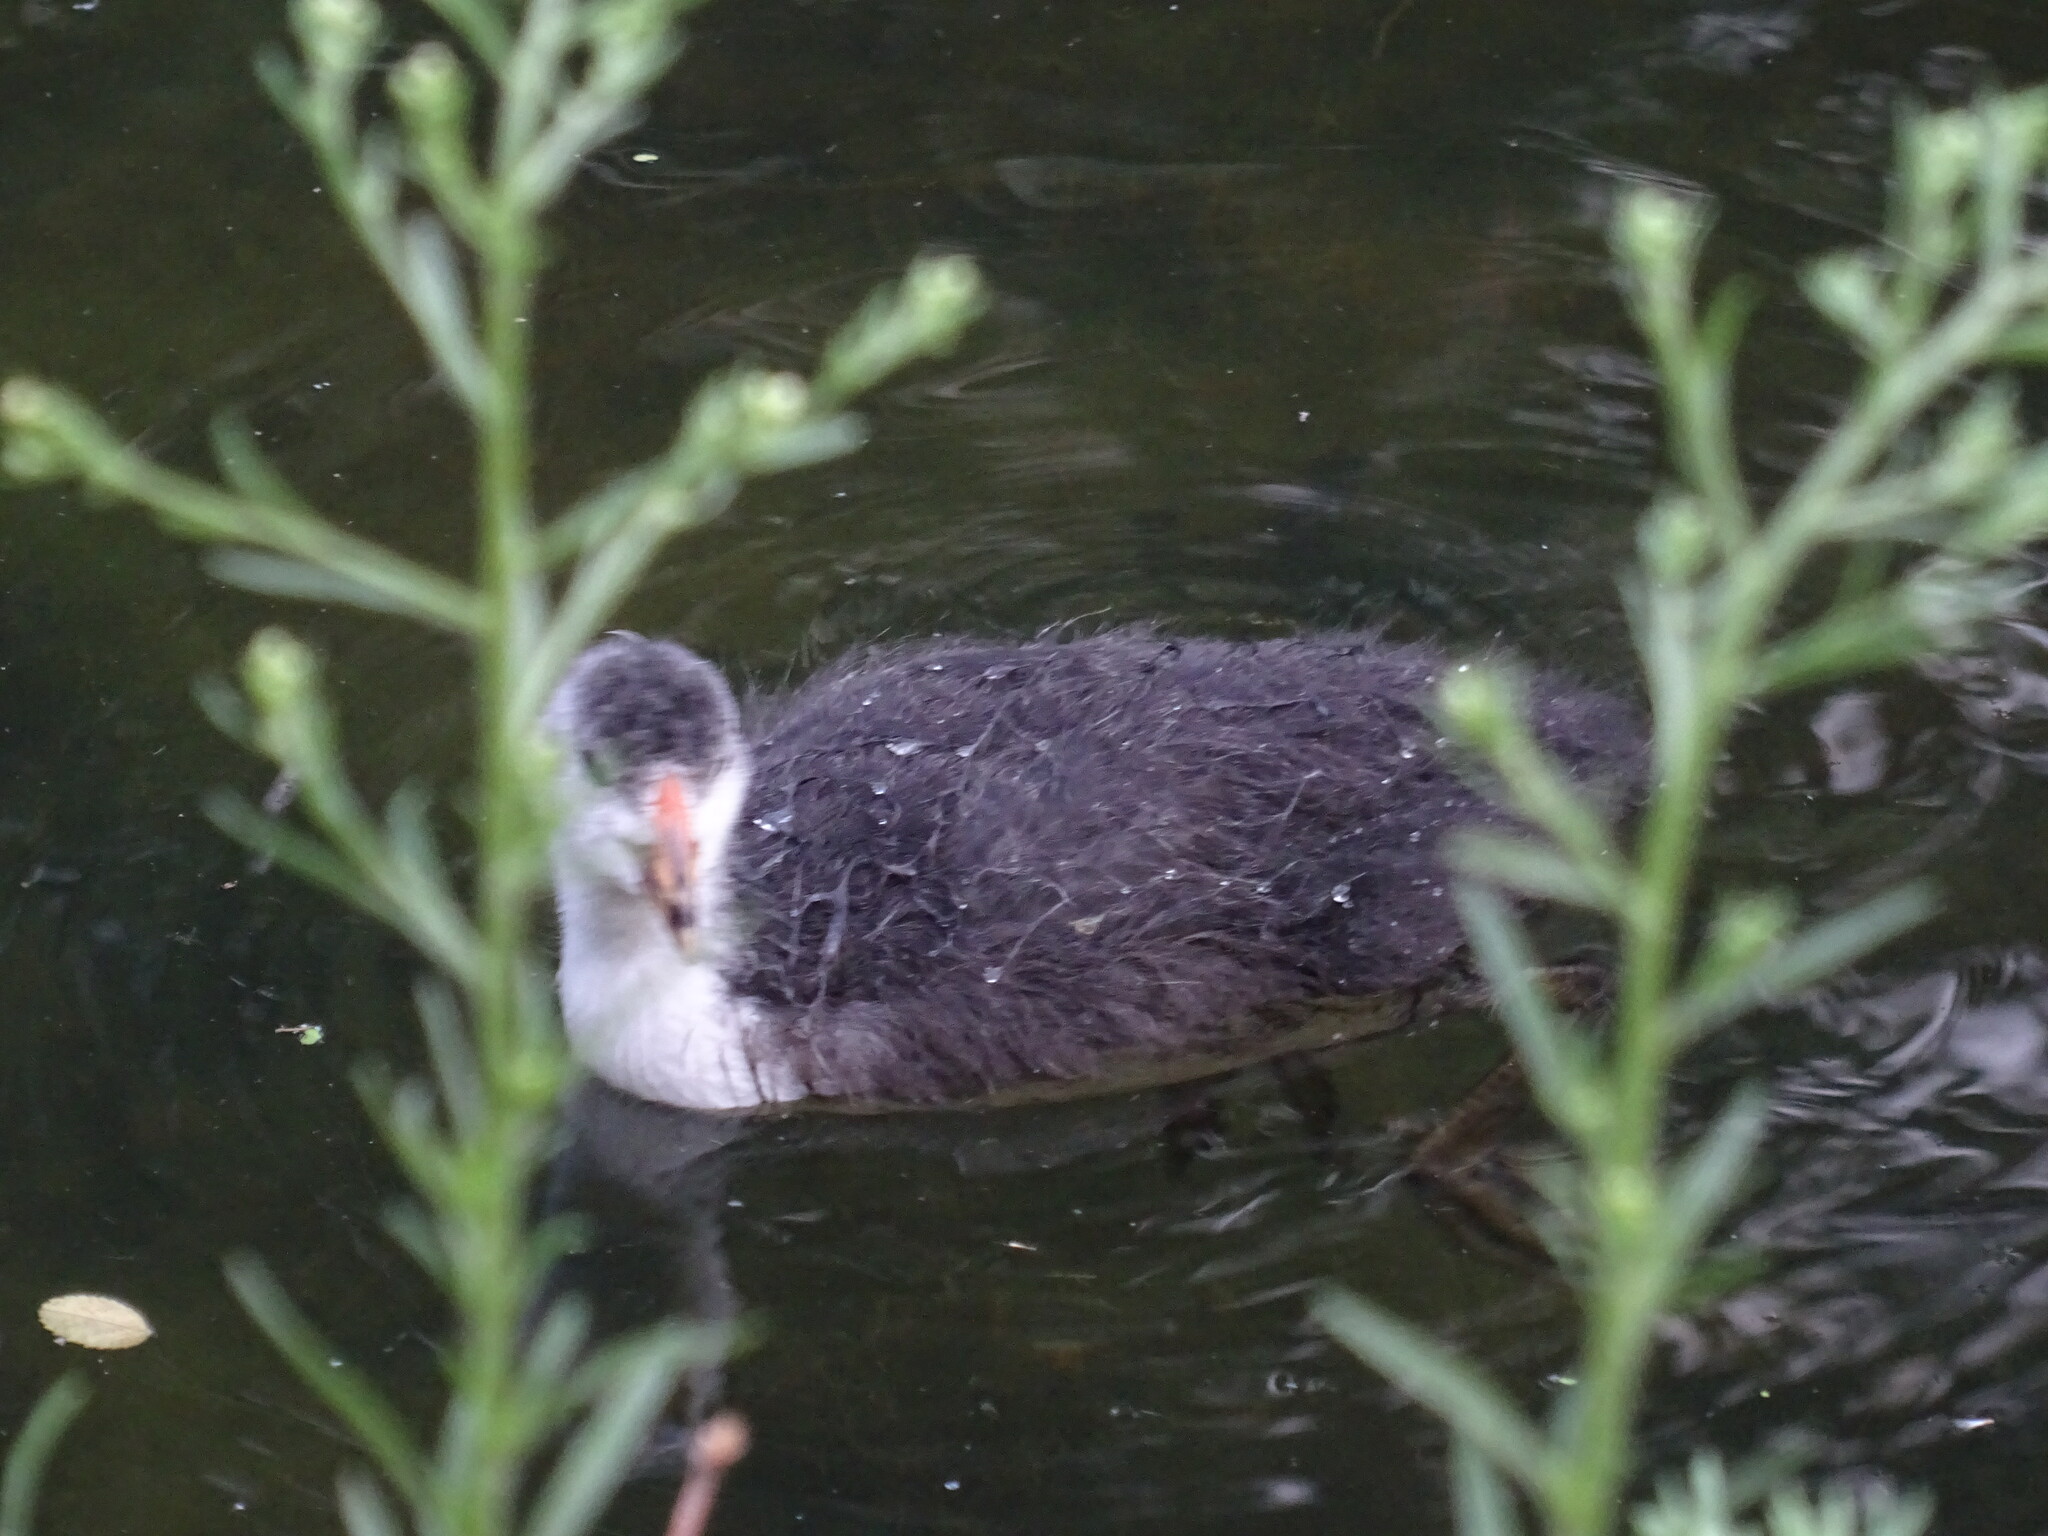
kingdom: Animalia
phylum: Chordata
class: Aves
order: Gruiformes
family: Rallidae
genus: Fulica
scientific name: Fulica atra
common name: Eurasian coot
